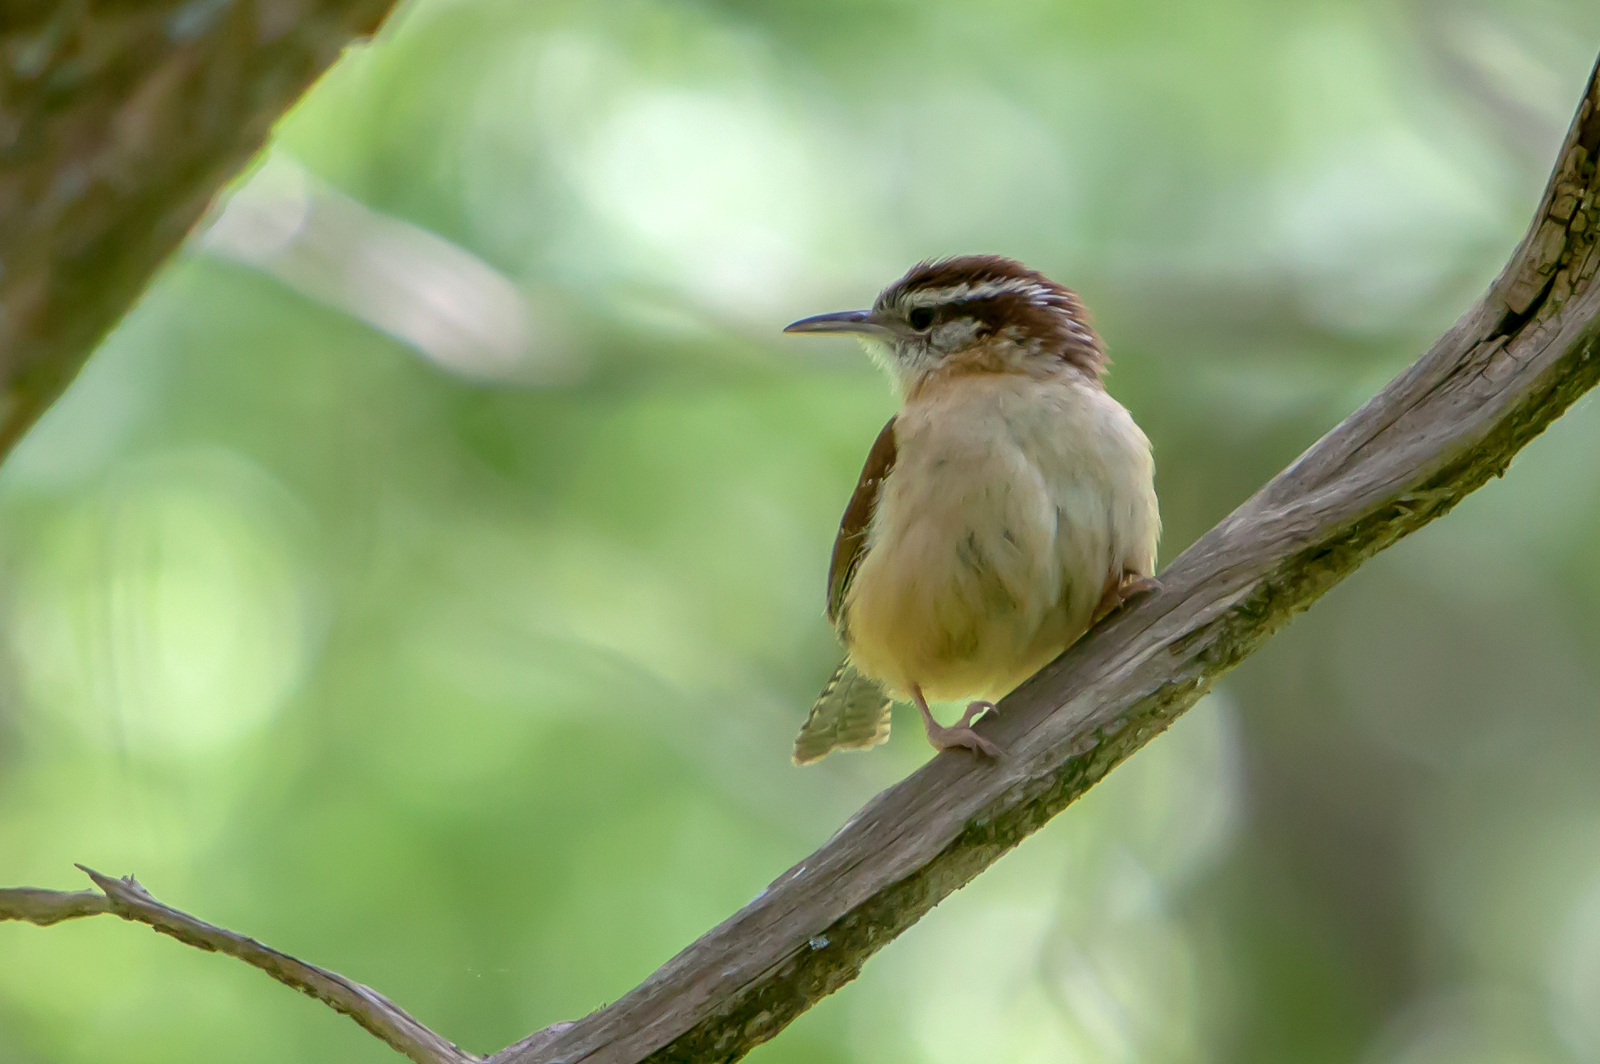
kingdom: Animalia
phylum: Chordata
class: Aves
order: Passeriformes
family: Troglodytidae
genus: Thryothorus
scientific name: Thryothorus ludovicianus
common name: Carolina wren
